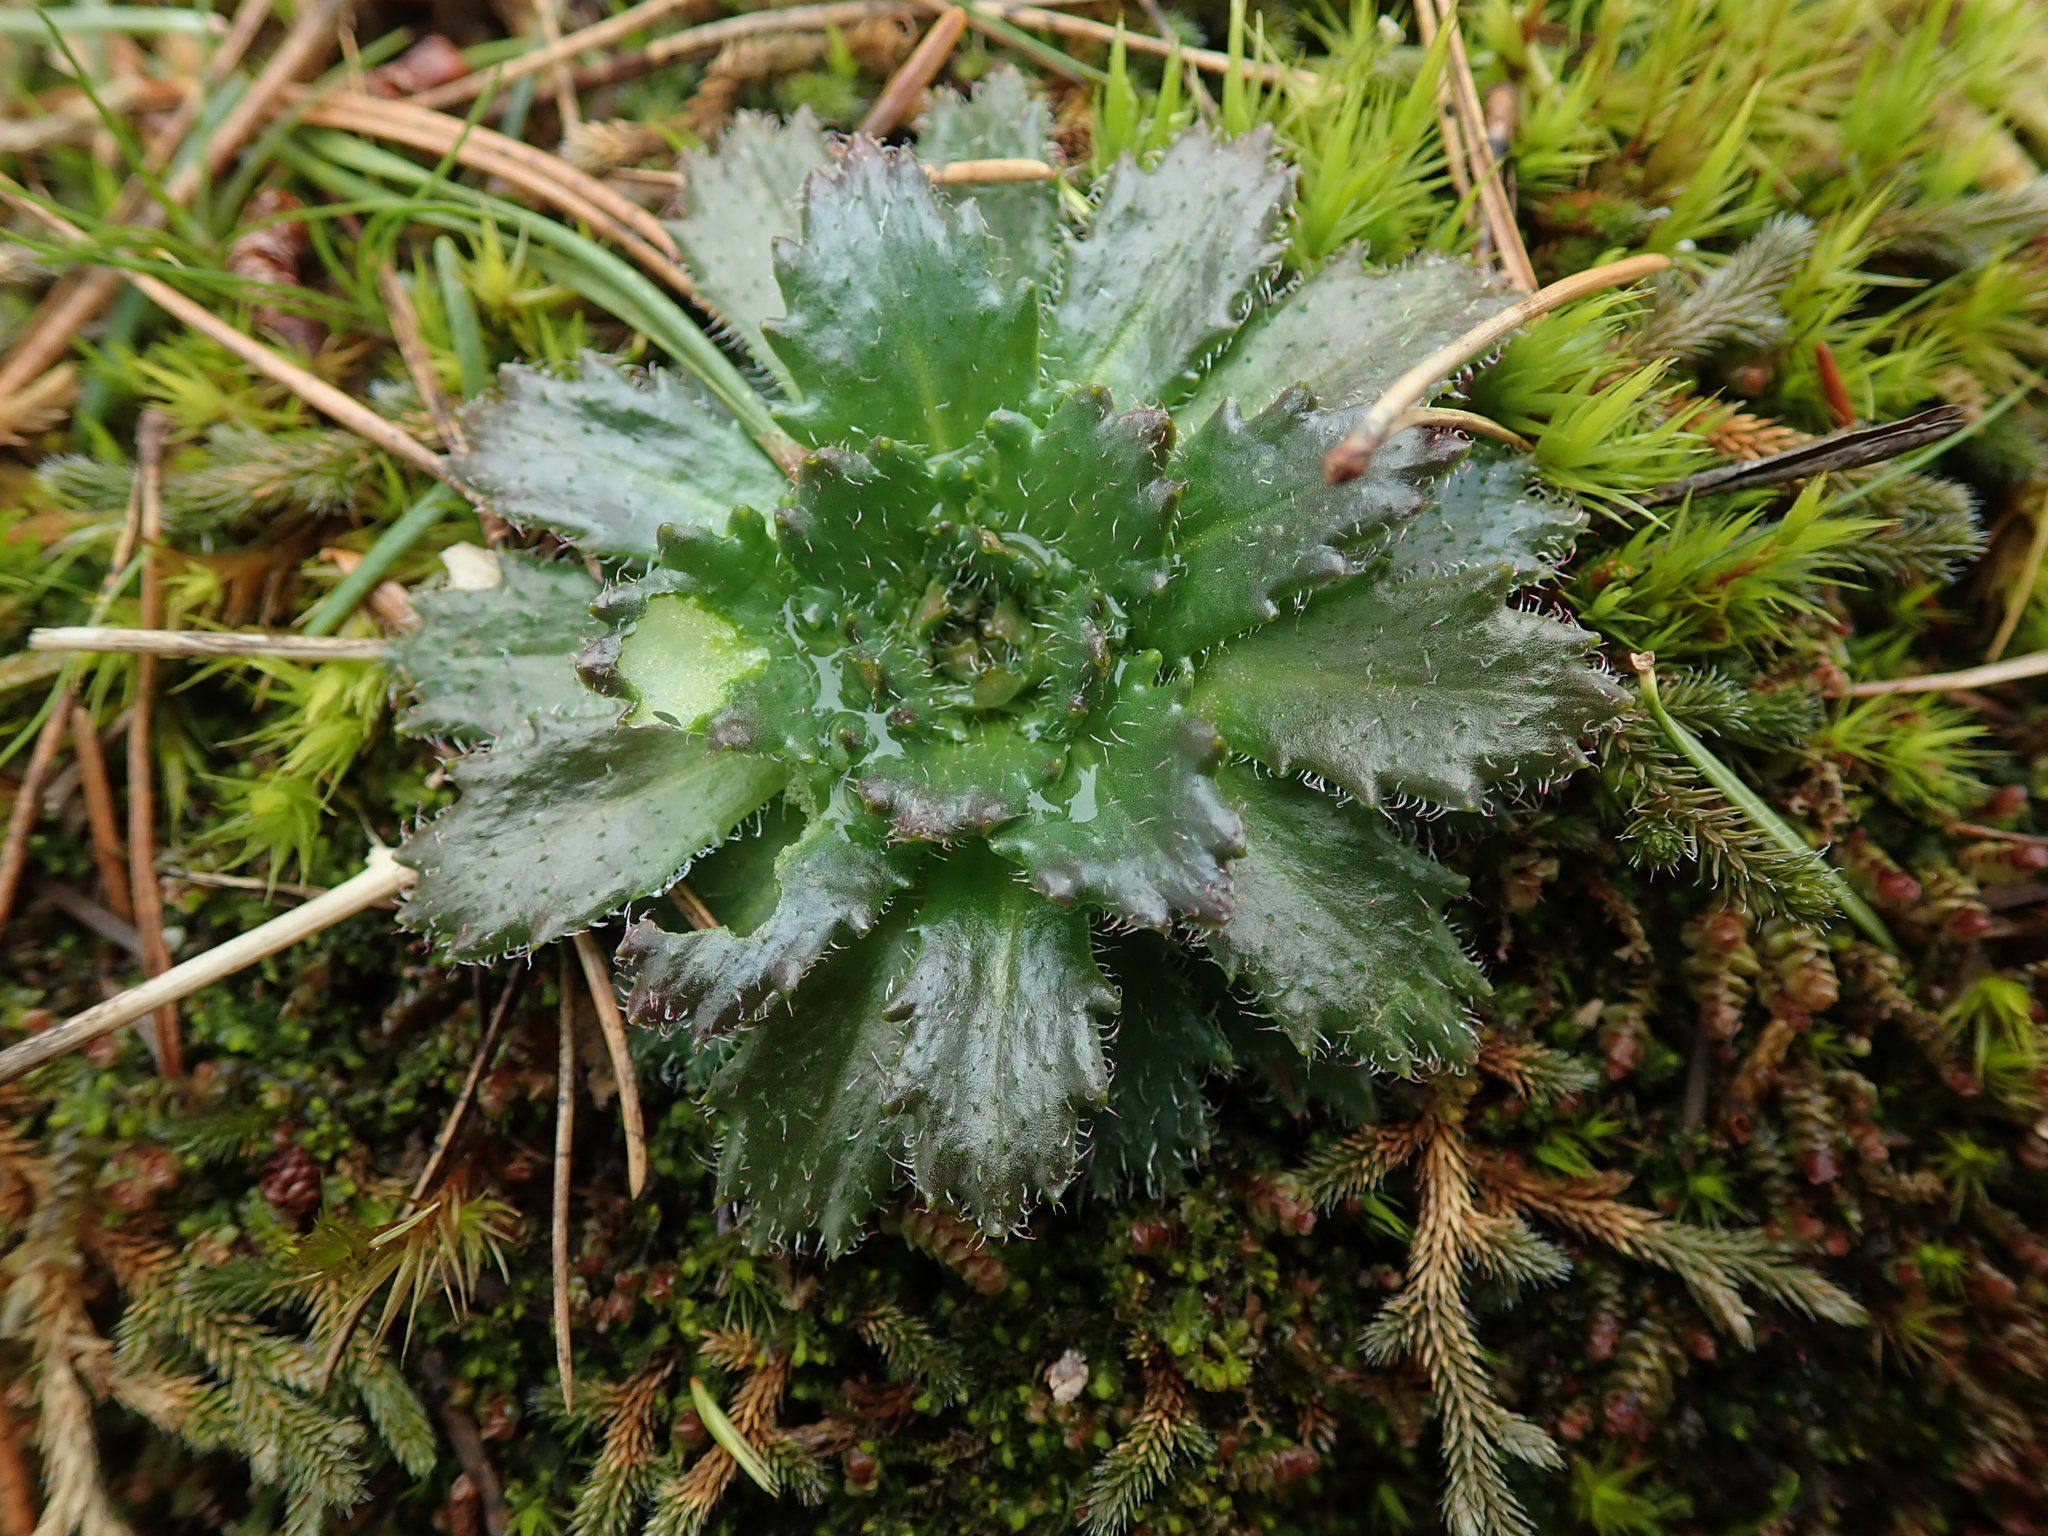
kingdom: Plantae
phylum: Tracheophyta
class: Magnoliopsida
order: Saxifragales
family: Saxifragaceae
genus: Micranthes
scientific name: Micranthes ferruginea
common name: Rusty saxifrage
